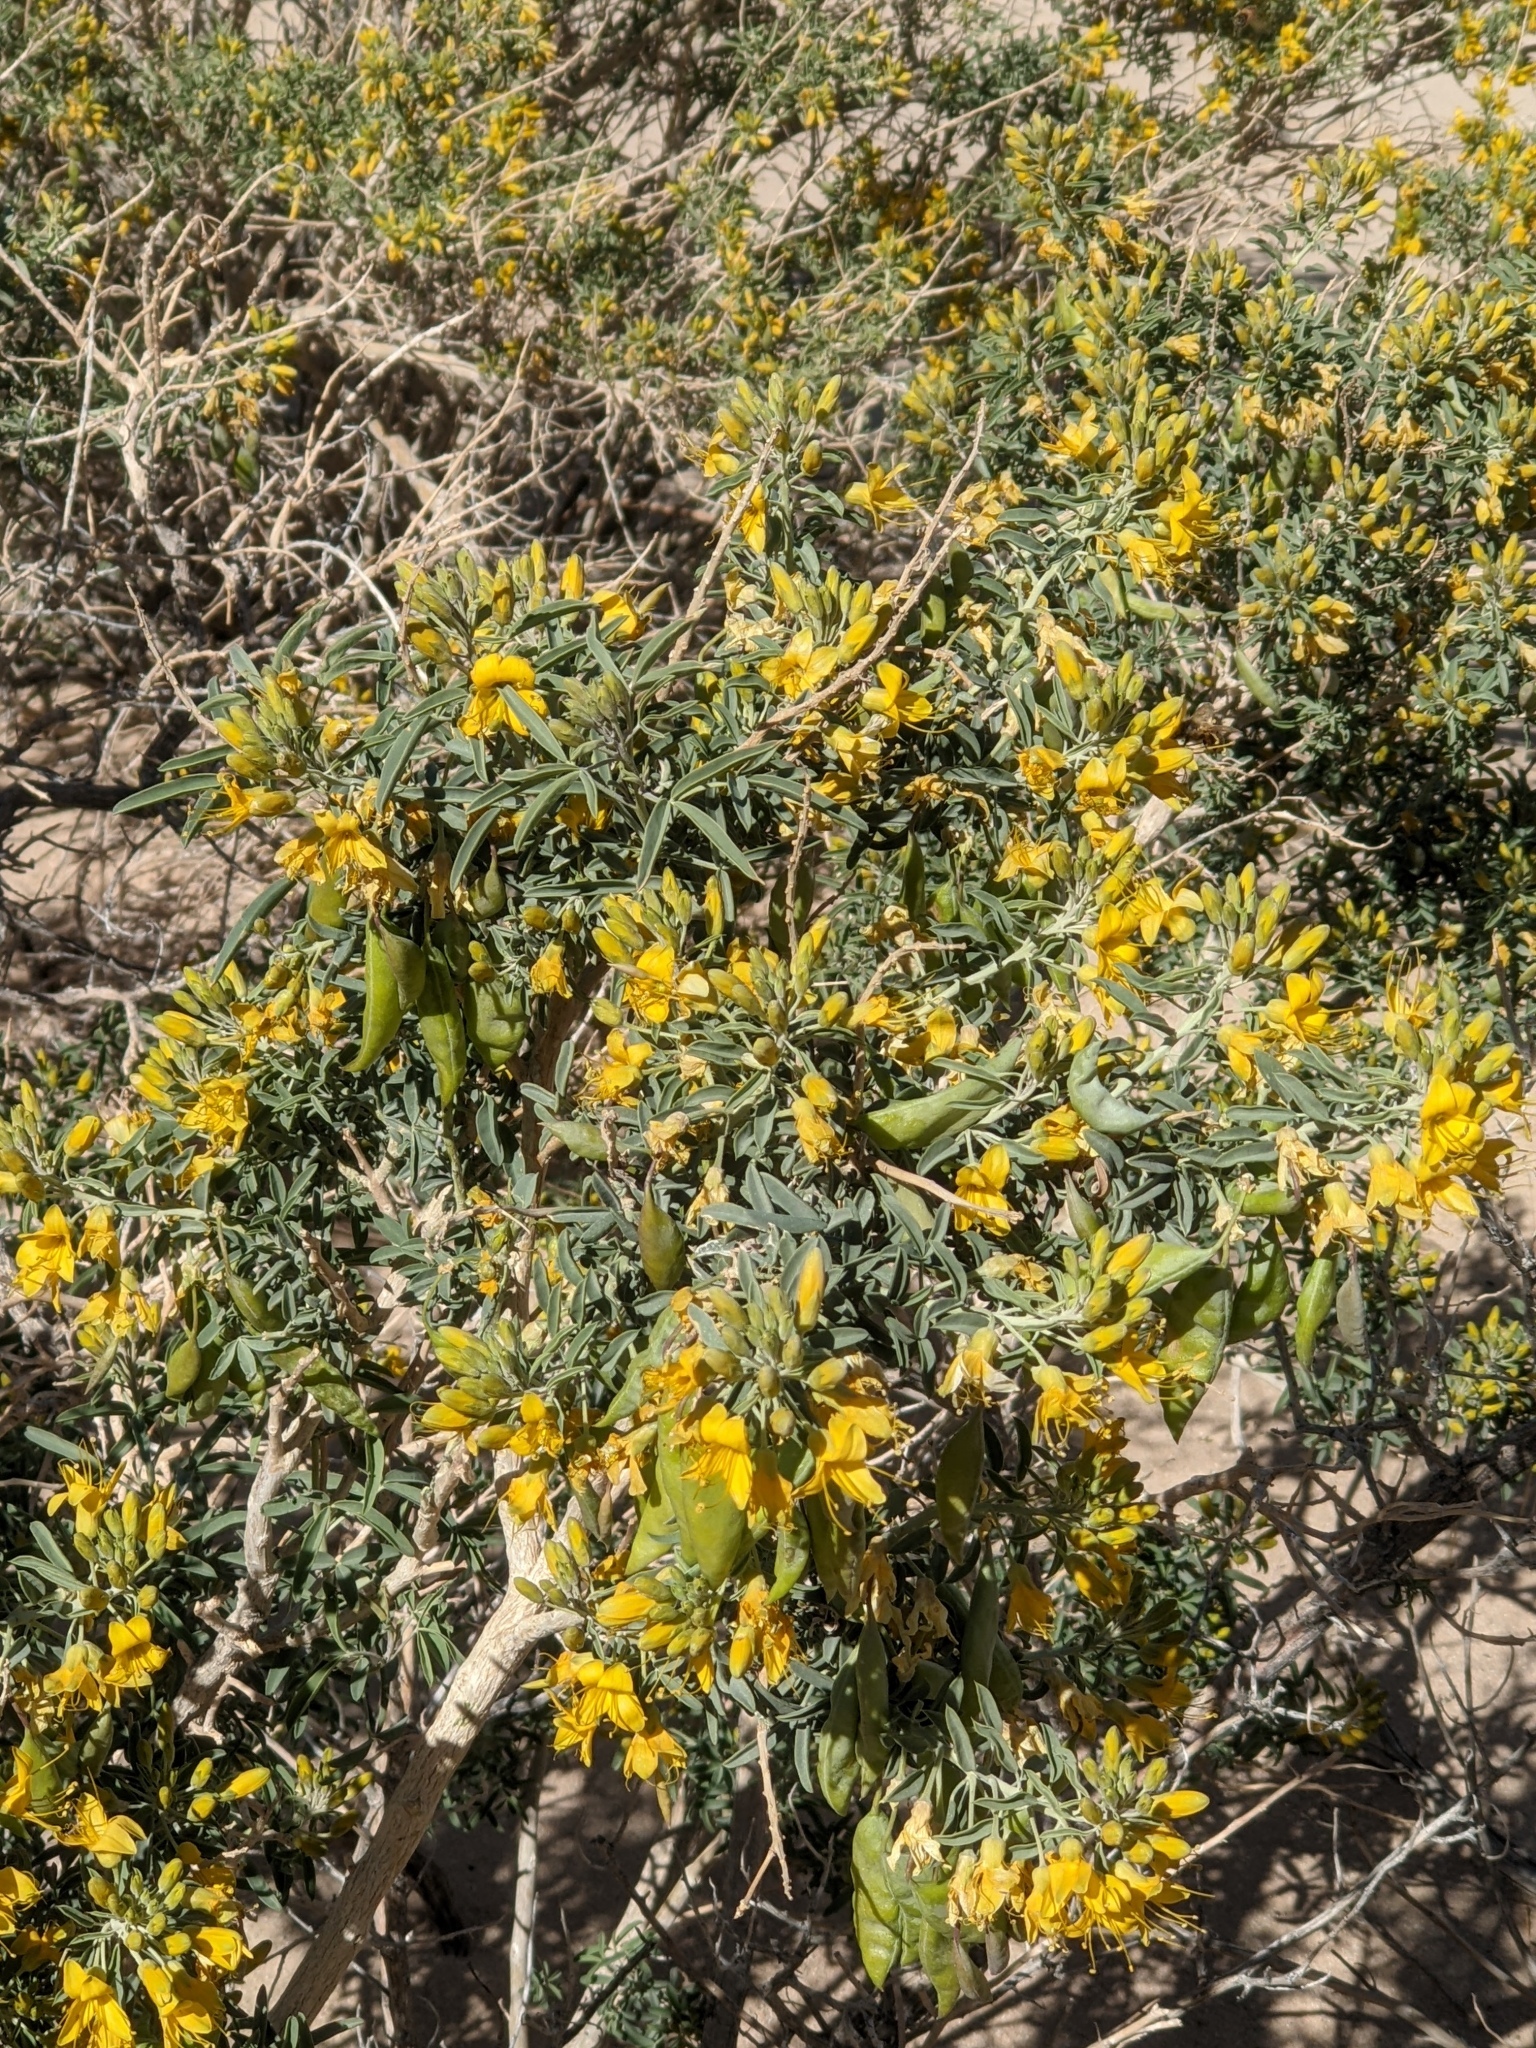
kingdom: Plantae
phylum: Tracheophyta
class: Magnoliopsida
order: Brassicales
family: Cleomaceae
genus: Cleomella
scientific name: Cleomella arborea
